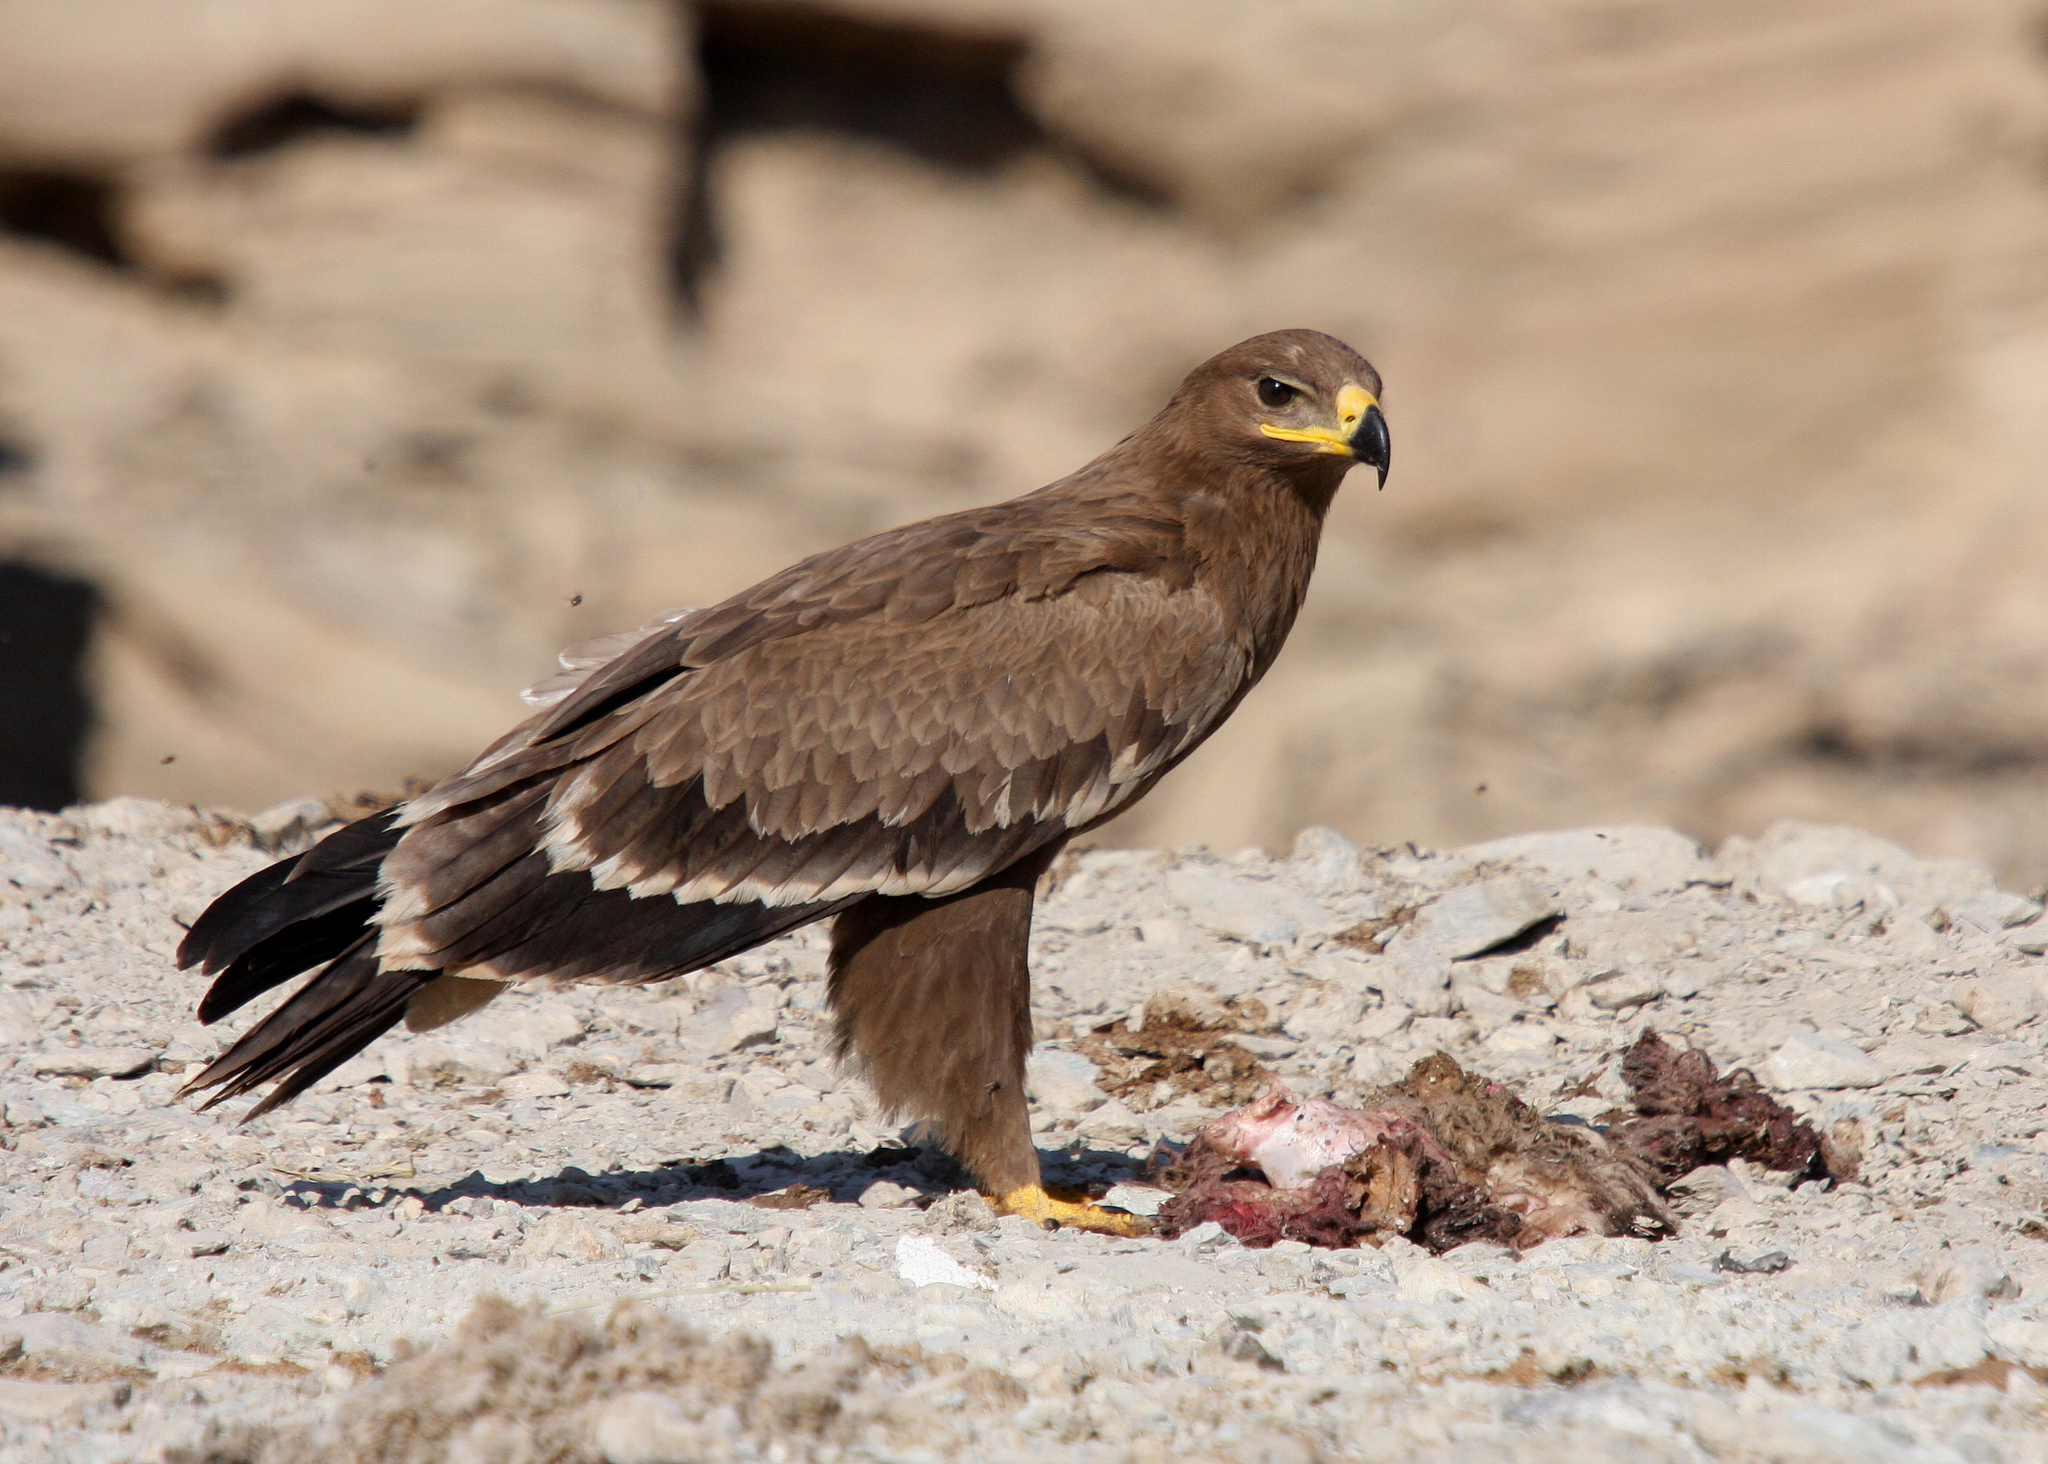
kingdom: Animalia
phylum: Chordata
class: Aves
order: Accipitriformes
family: Accipitridae
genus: Aquila
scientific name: Aquila nipalensis
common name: Steppe eagle
